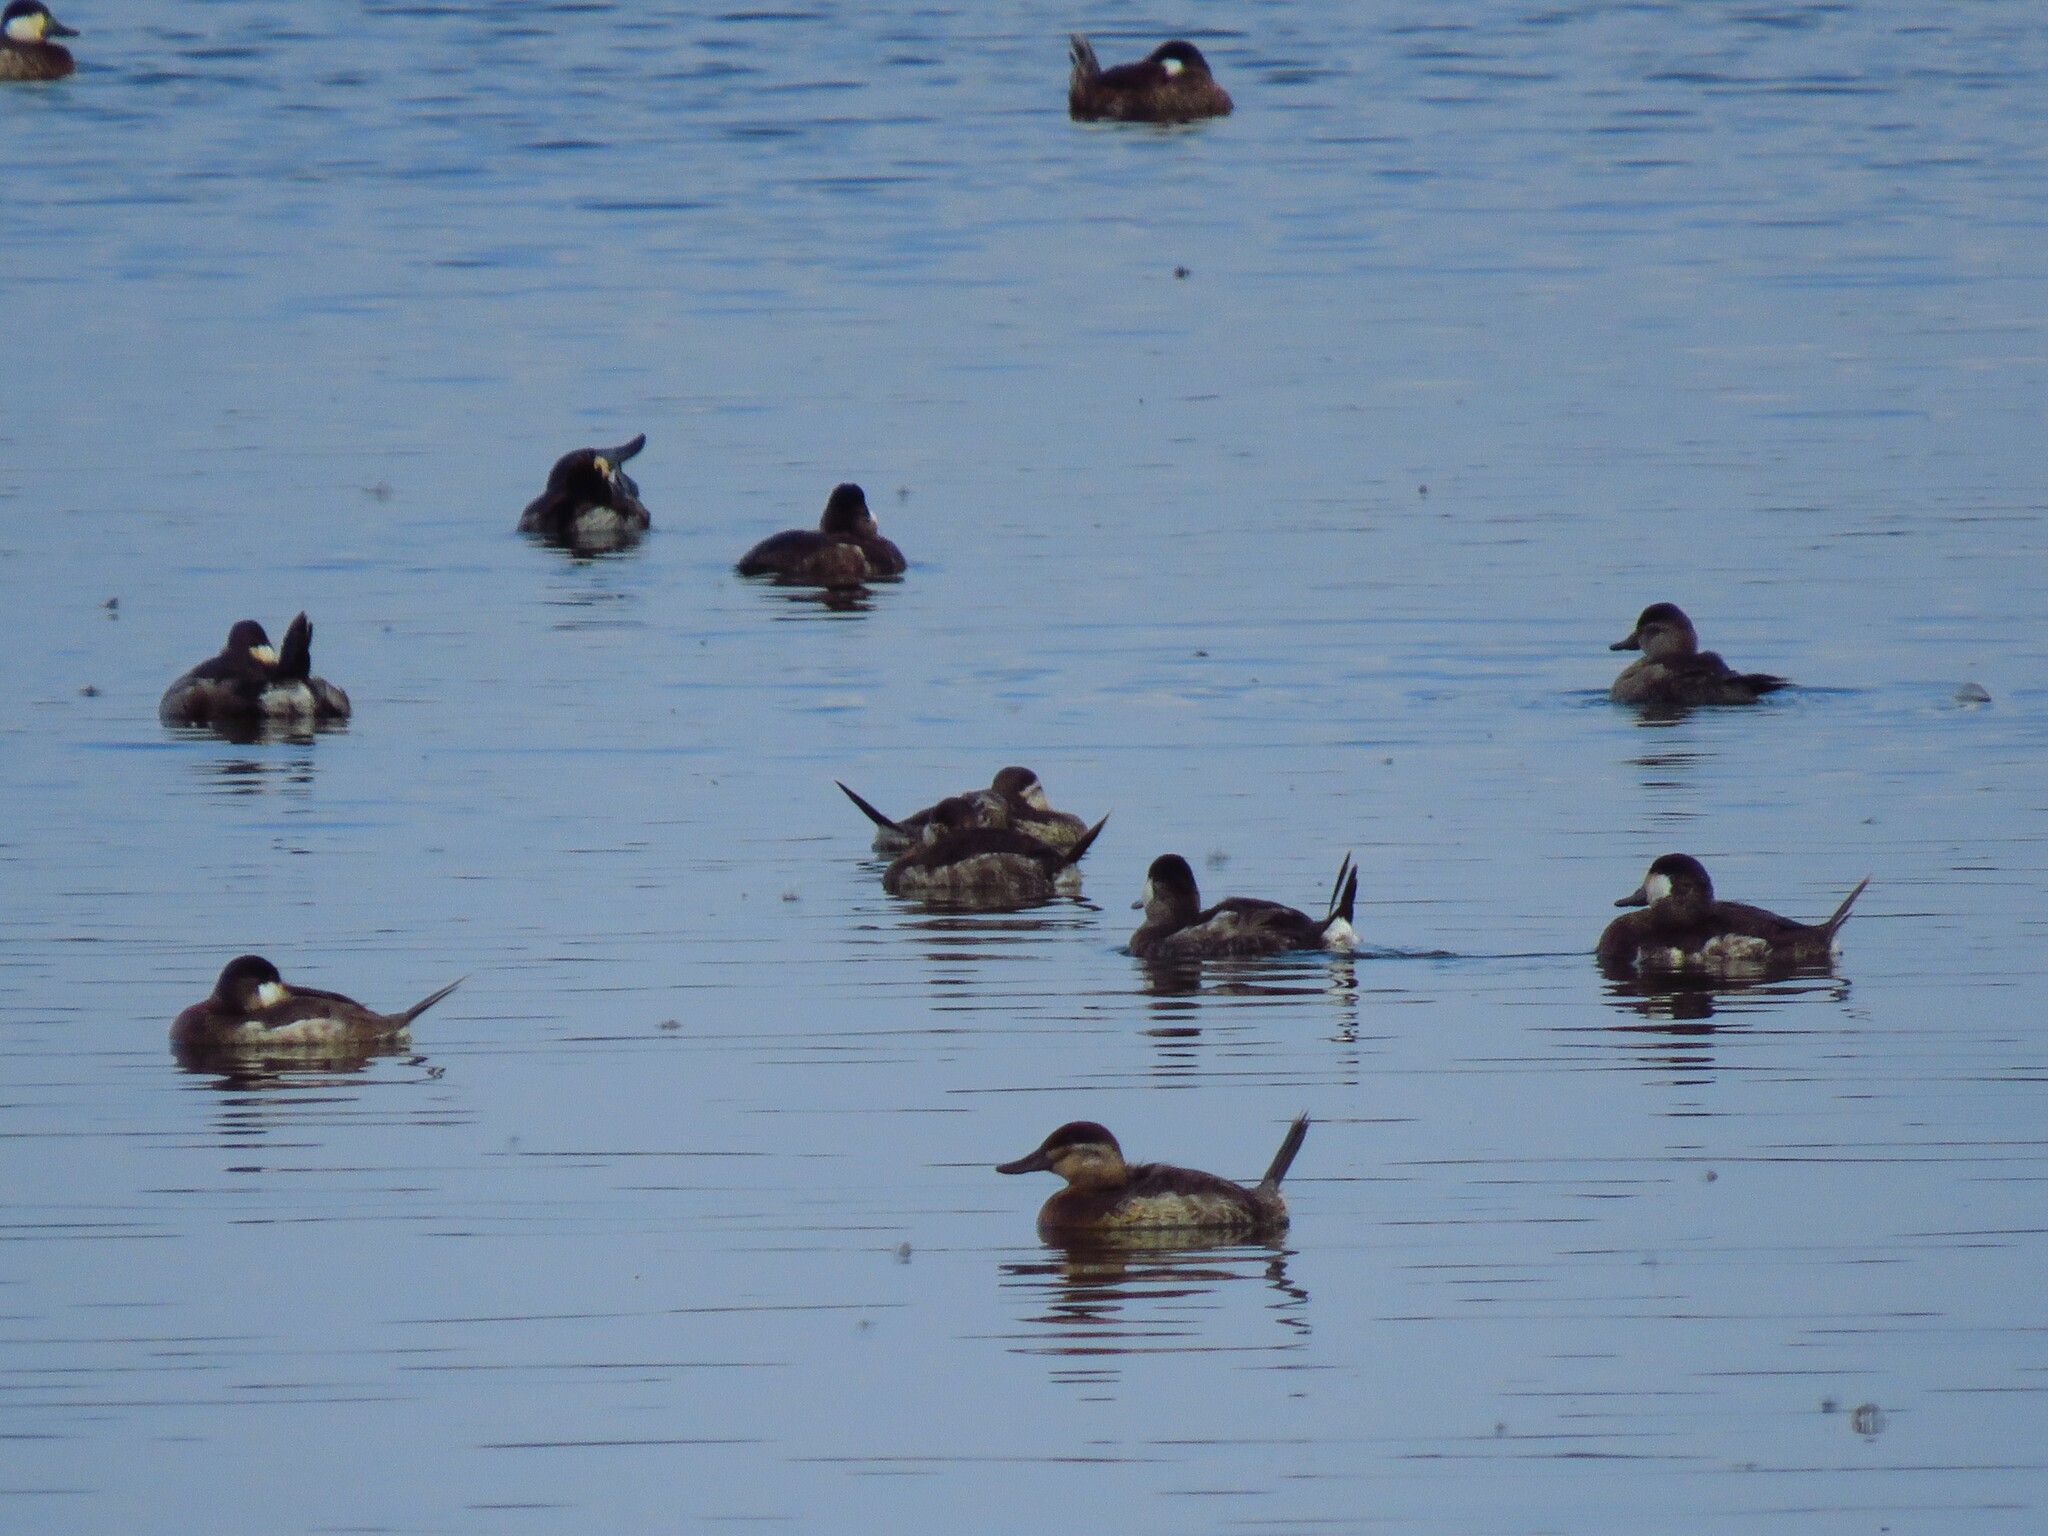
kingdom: Animalia
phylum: Chordata
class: Aves
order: Anseriformes
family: Anatidae
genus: Oxyura
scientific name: Oxyura jamaicensis
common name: Ruddy duck
